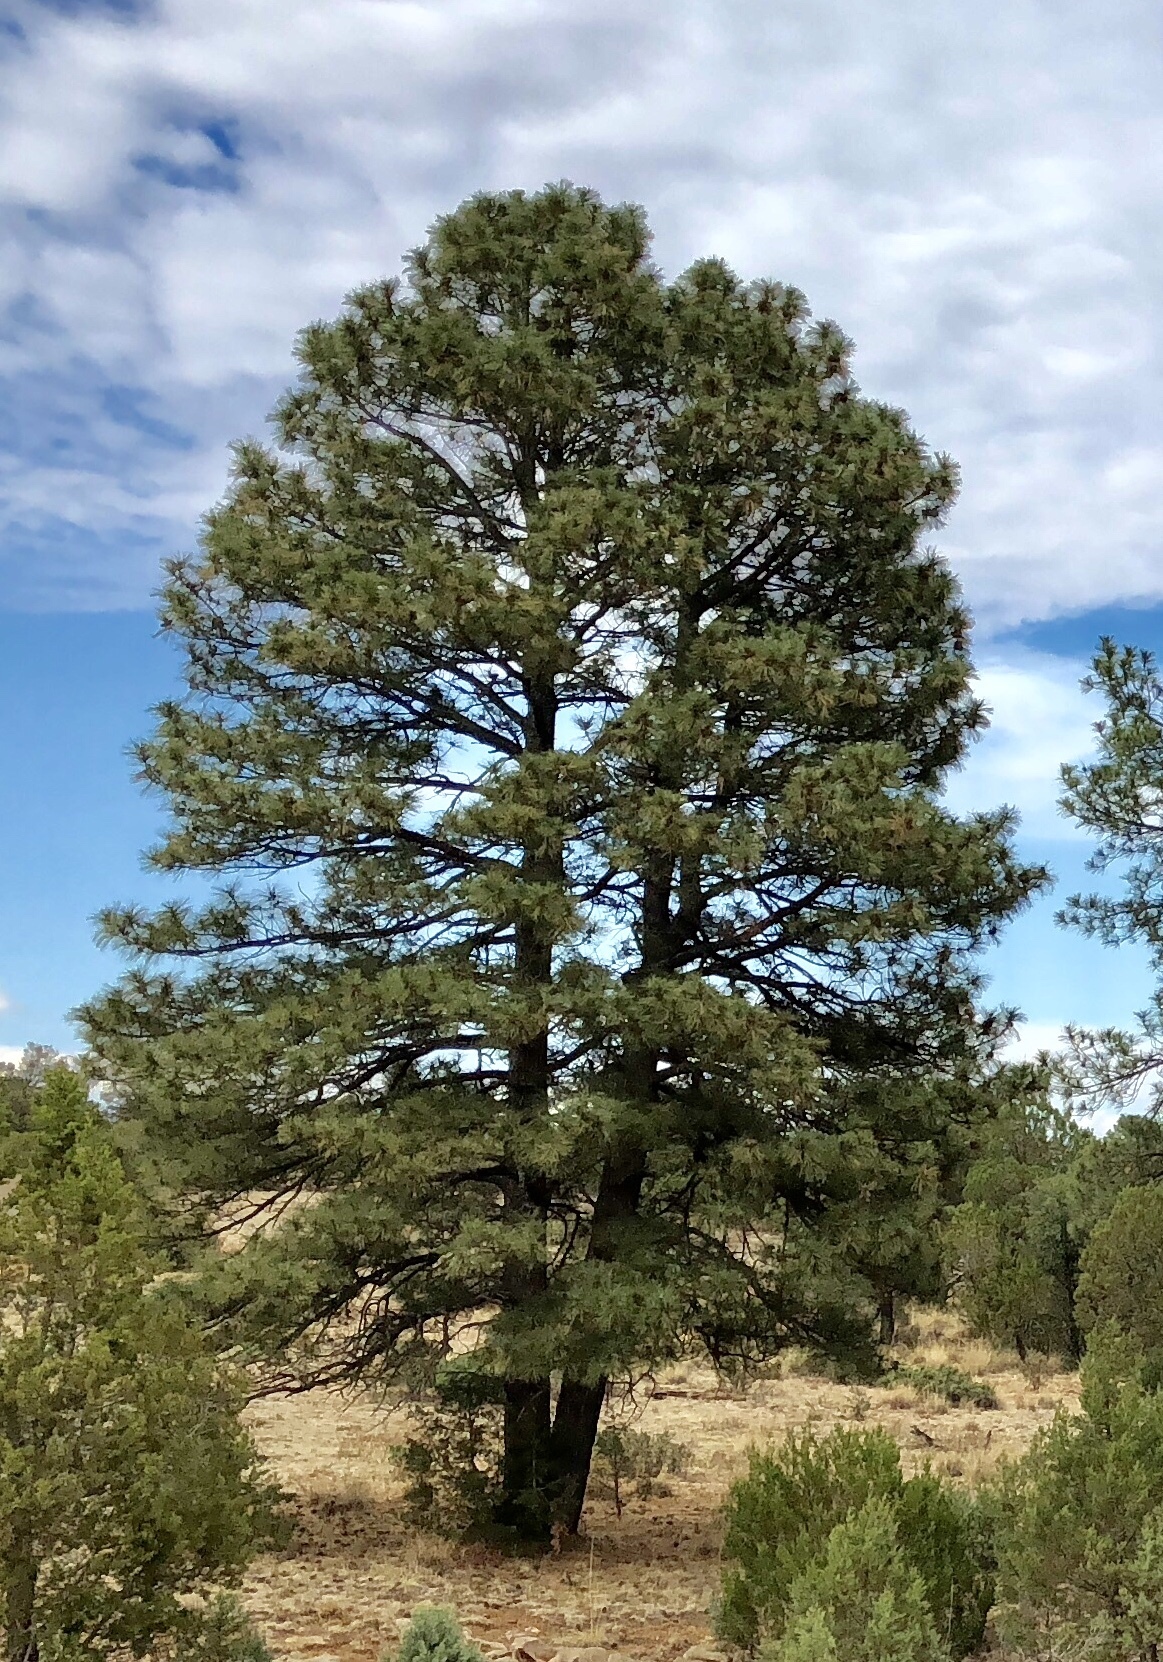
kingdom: Plantae
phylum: Tracheophyta
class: Pinopsida
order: Pinales
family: Pinaceae
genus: Pinus
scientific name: Pinus ponderosa
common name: Western yellow-pine
